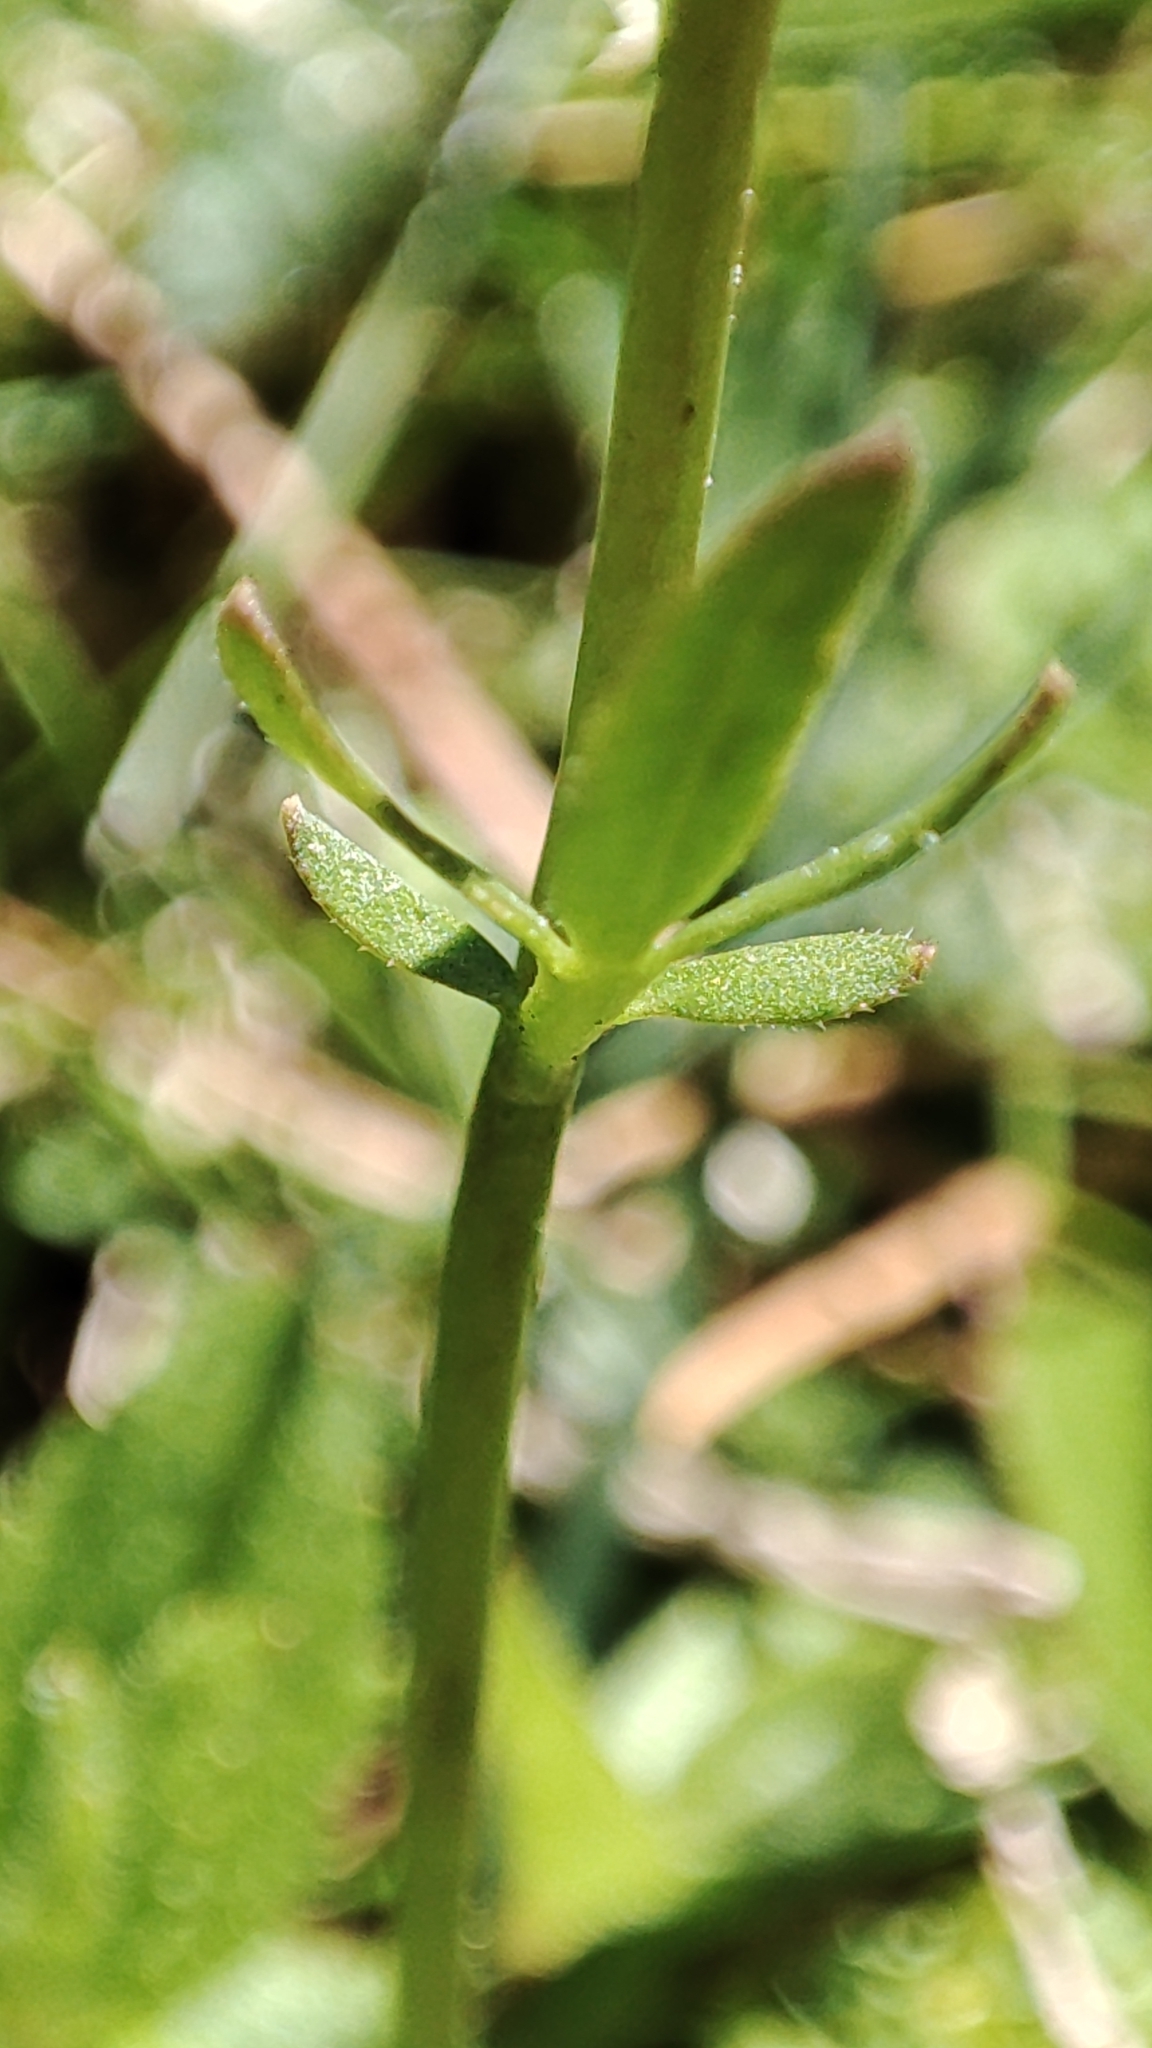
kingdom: Plantae
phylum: Tracheophyta
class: Magnoliopsida
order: Brassicales
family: Brassicaceae
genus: Cardamine
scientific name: Cardamine pratensis
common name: Cuckoo flower
